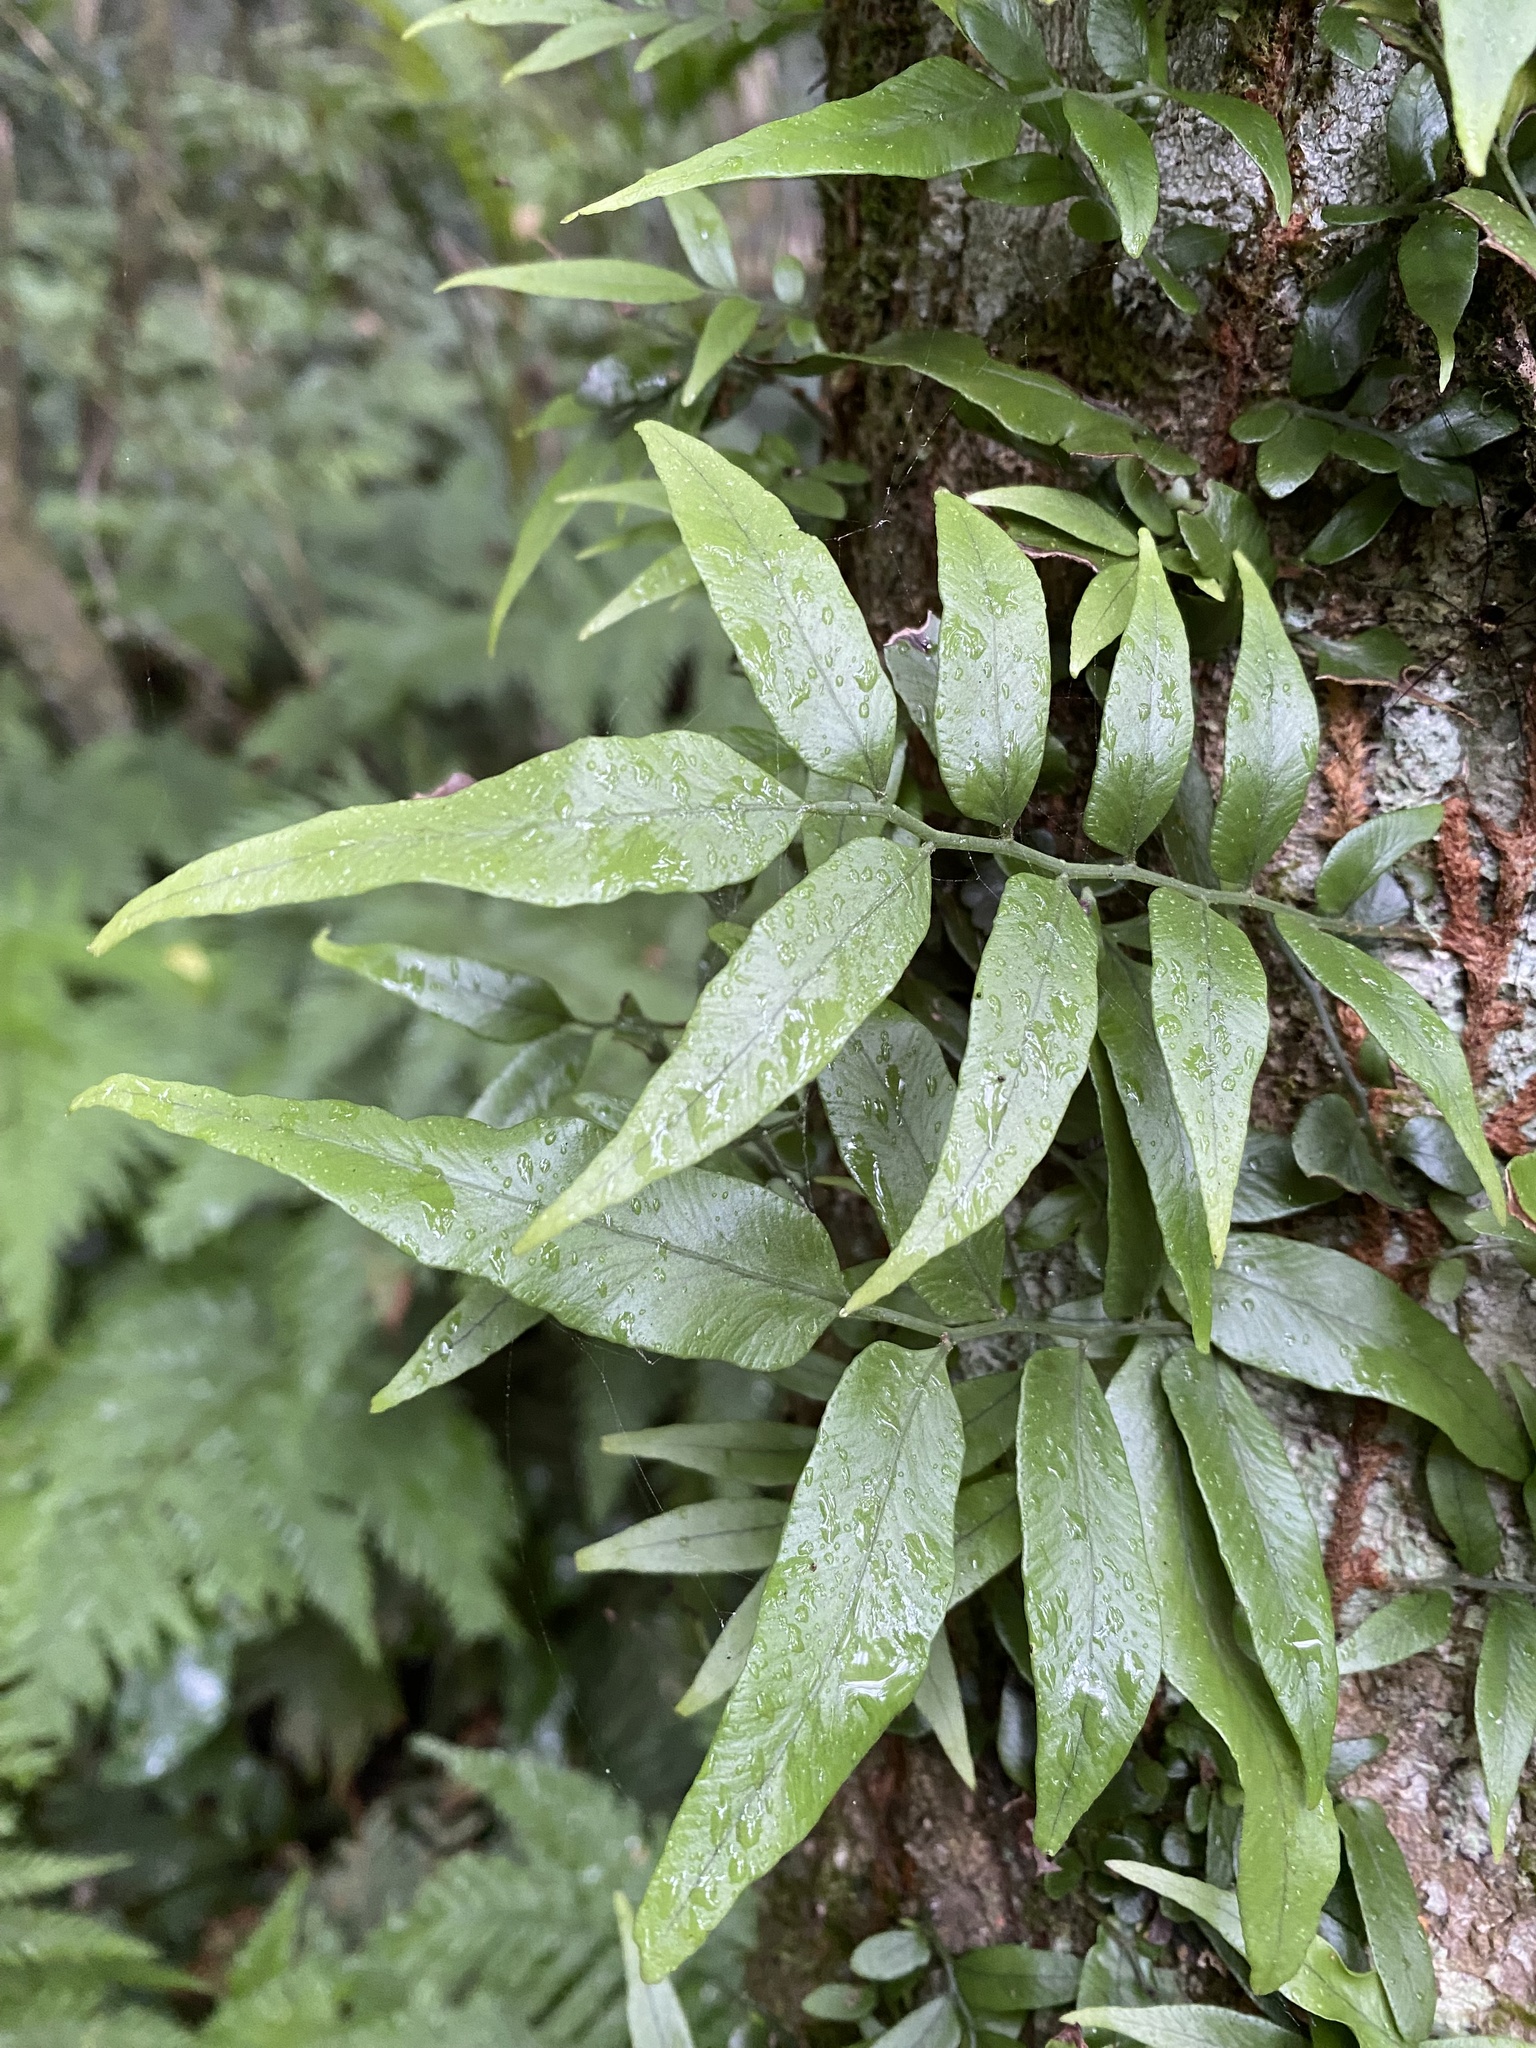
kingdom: Plantae
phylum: Tracheophyta
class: Polypodiopsida
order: Polypodiales
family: Tectariaceae
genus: Arthropteris
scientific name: Arthropteris tenella
